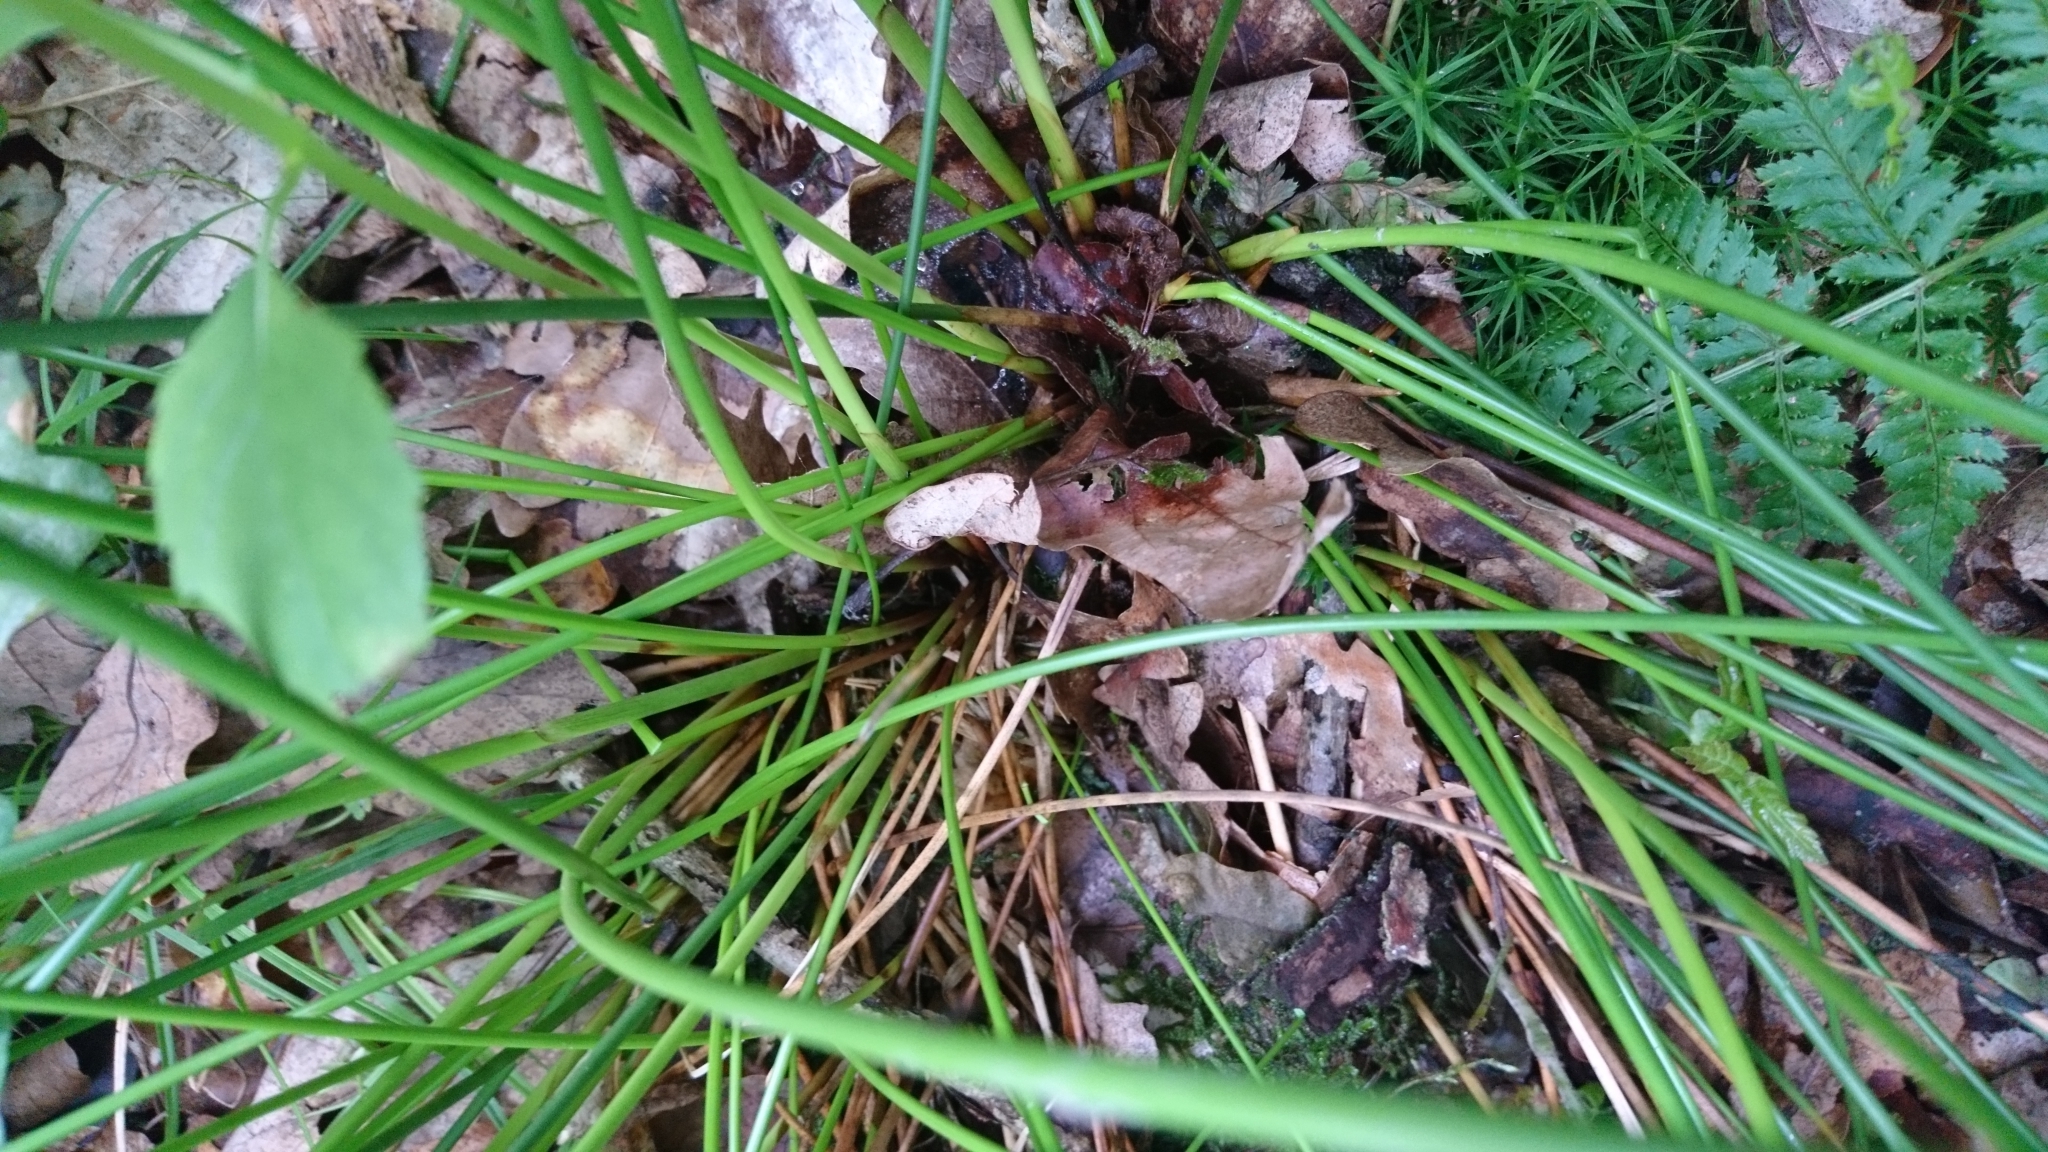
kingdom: Plantae
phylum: Tracheophyta
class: Liliopsida
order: Poales
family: Juncaceae
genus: Juncus
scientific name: Juncus effusus
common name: Soft rush
